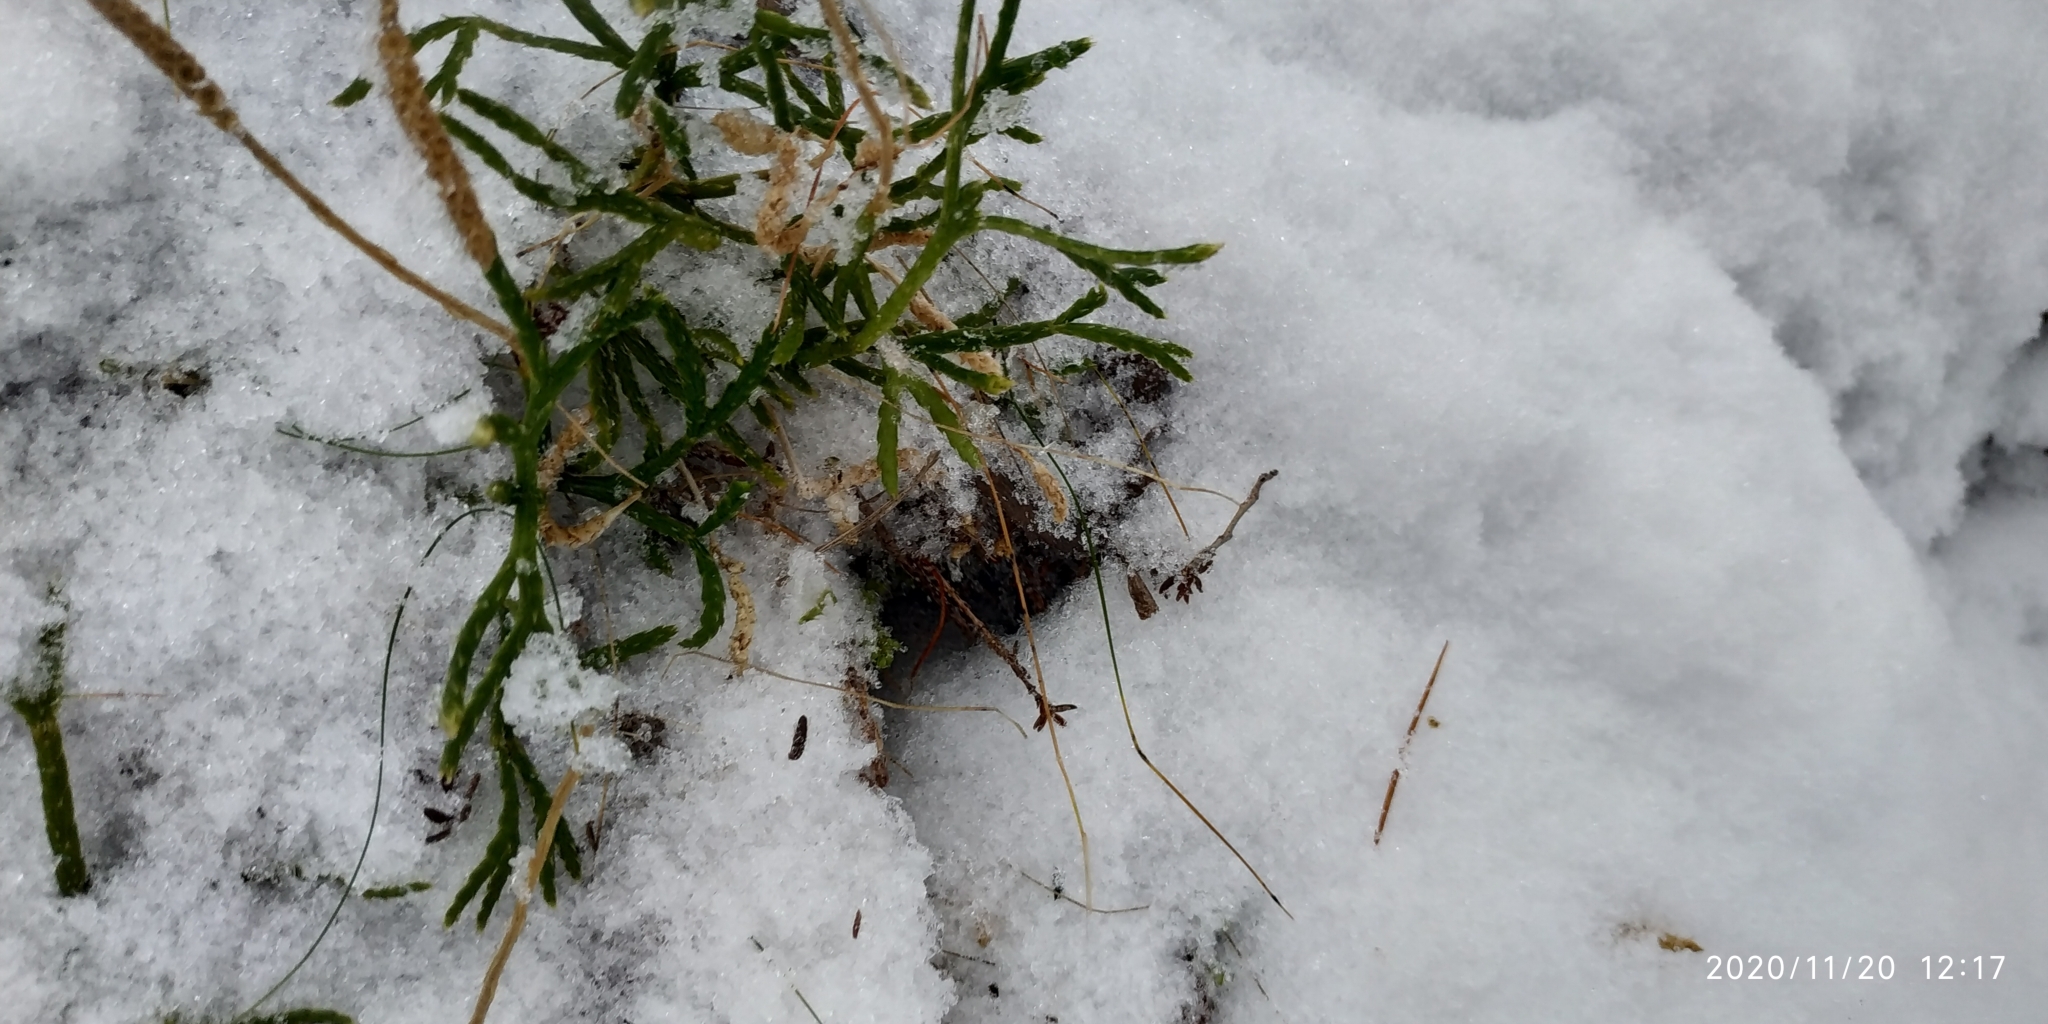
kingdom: Plantae
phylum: Tracheophyta
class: Lycopodiopsida
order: Lycopodiales
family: Lycopodiaceae
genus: Diphasiastrum
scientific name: Diphasiastrum complanatum
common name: Northern running-pine
